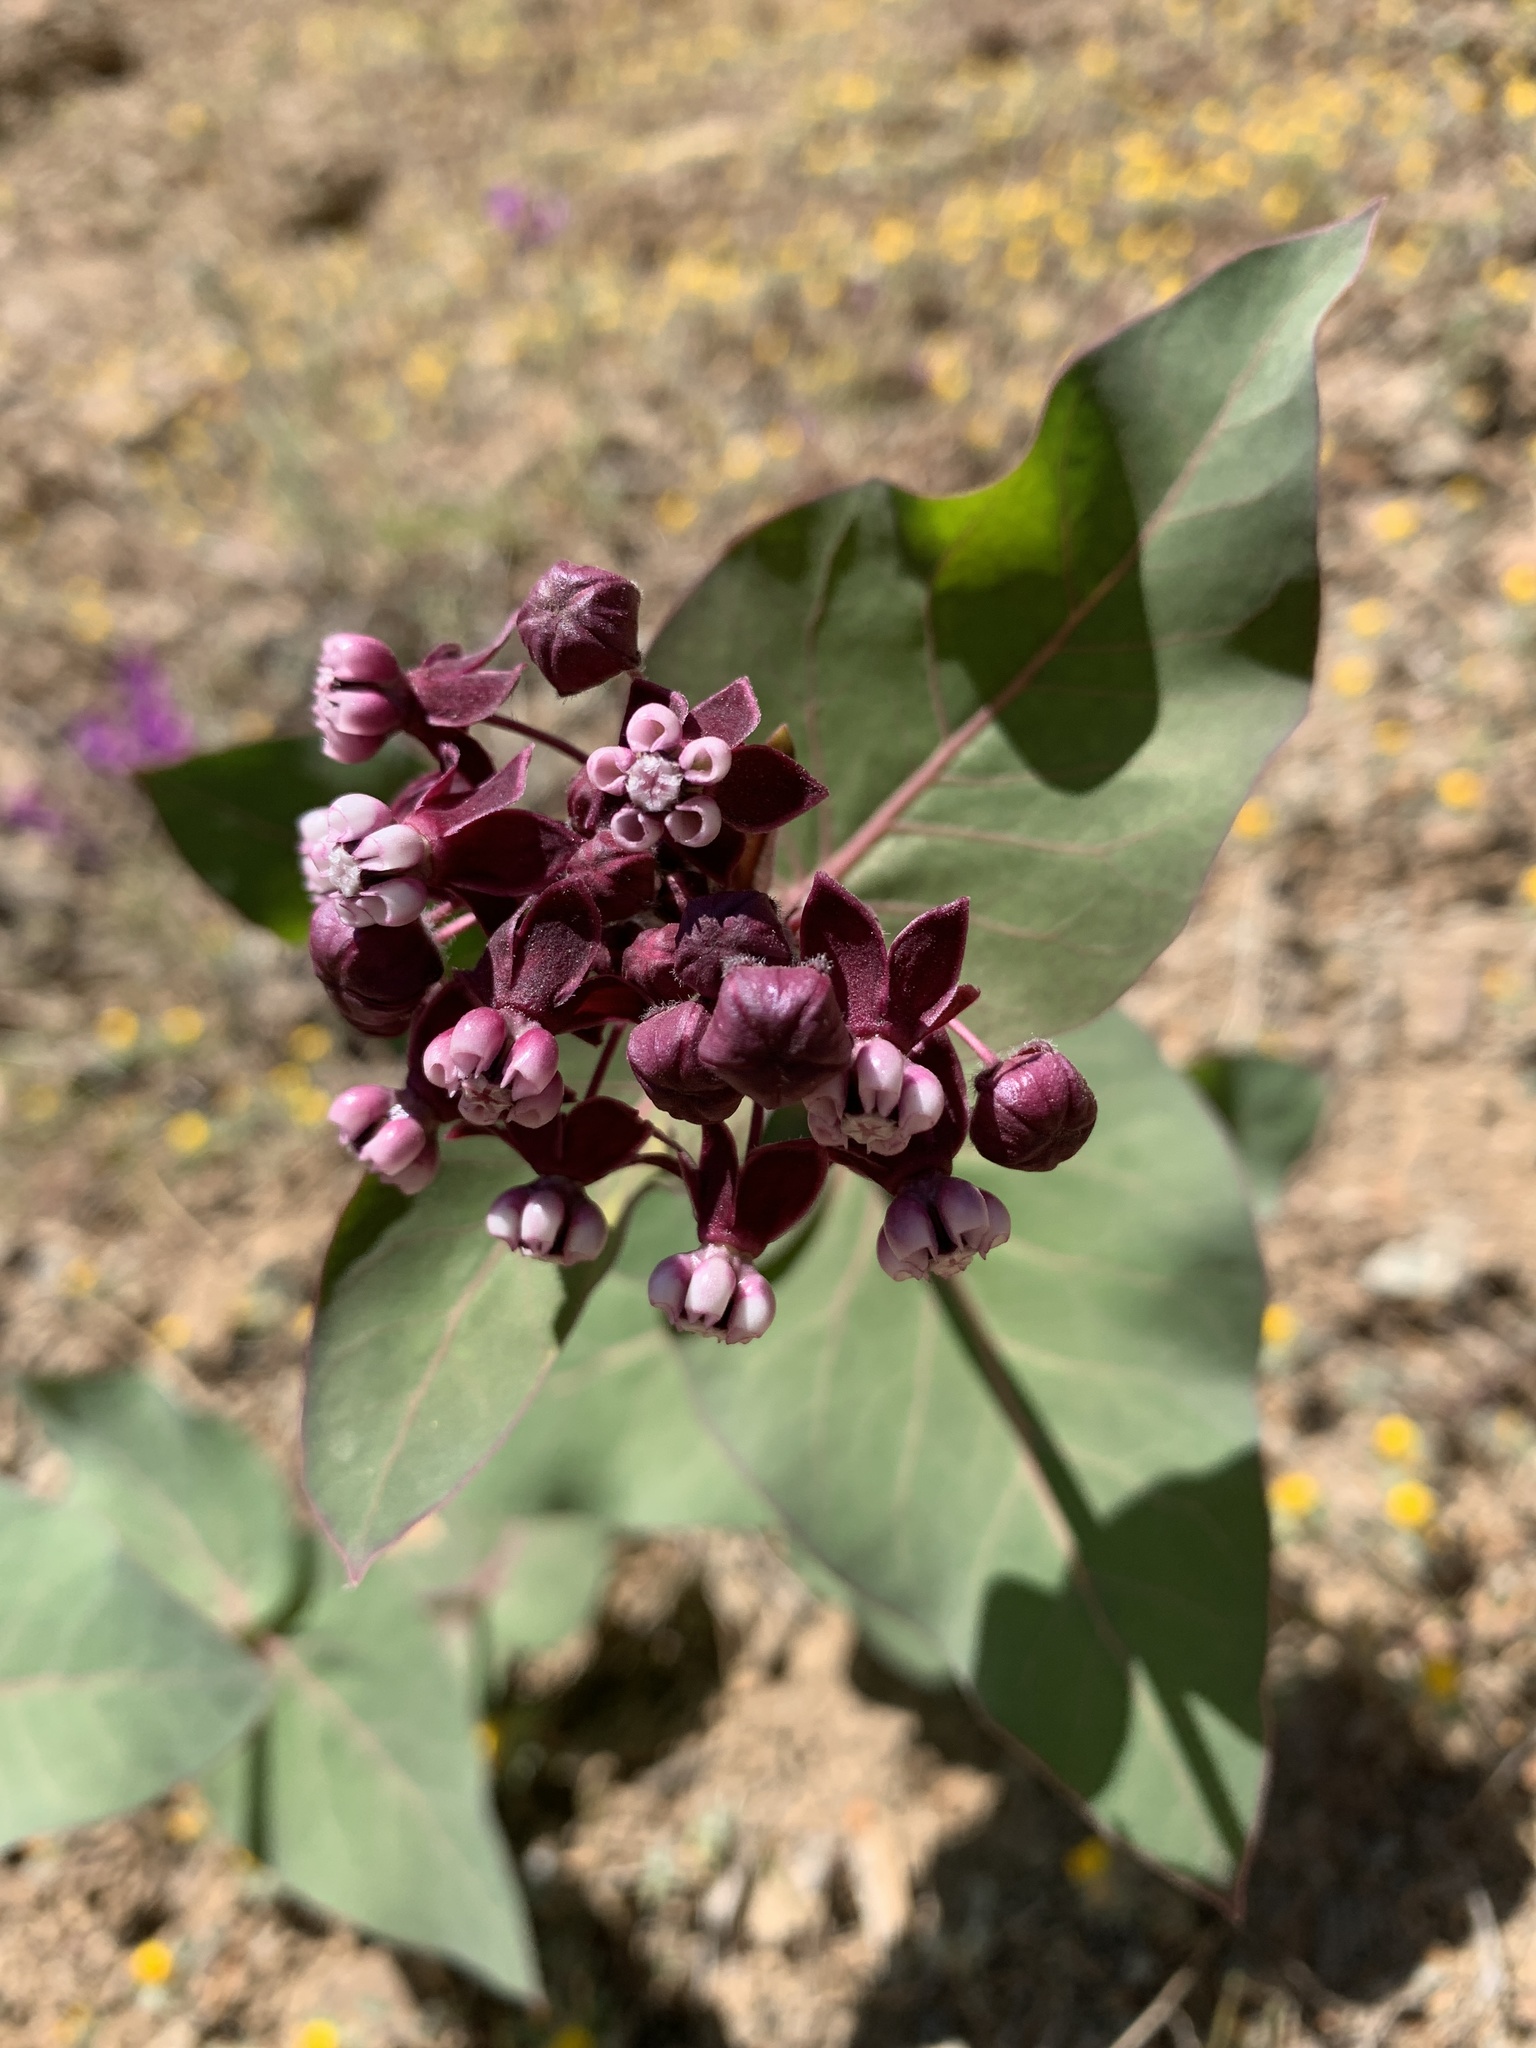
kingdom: Plantae
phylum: Tracheophyta
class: Magnoliopsida
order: Gentianales
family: Apocynaceae
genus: Asclepias
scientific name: Asclepias cordifolia
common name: Purple milkweed
